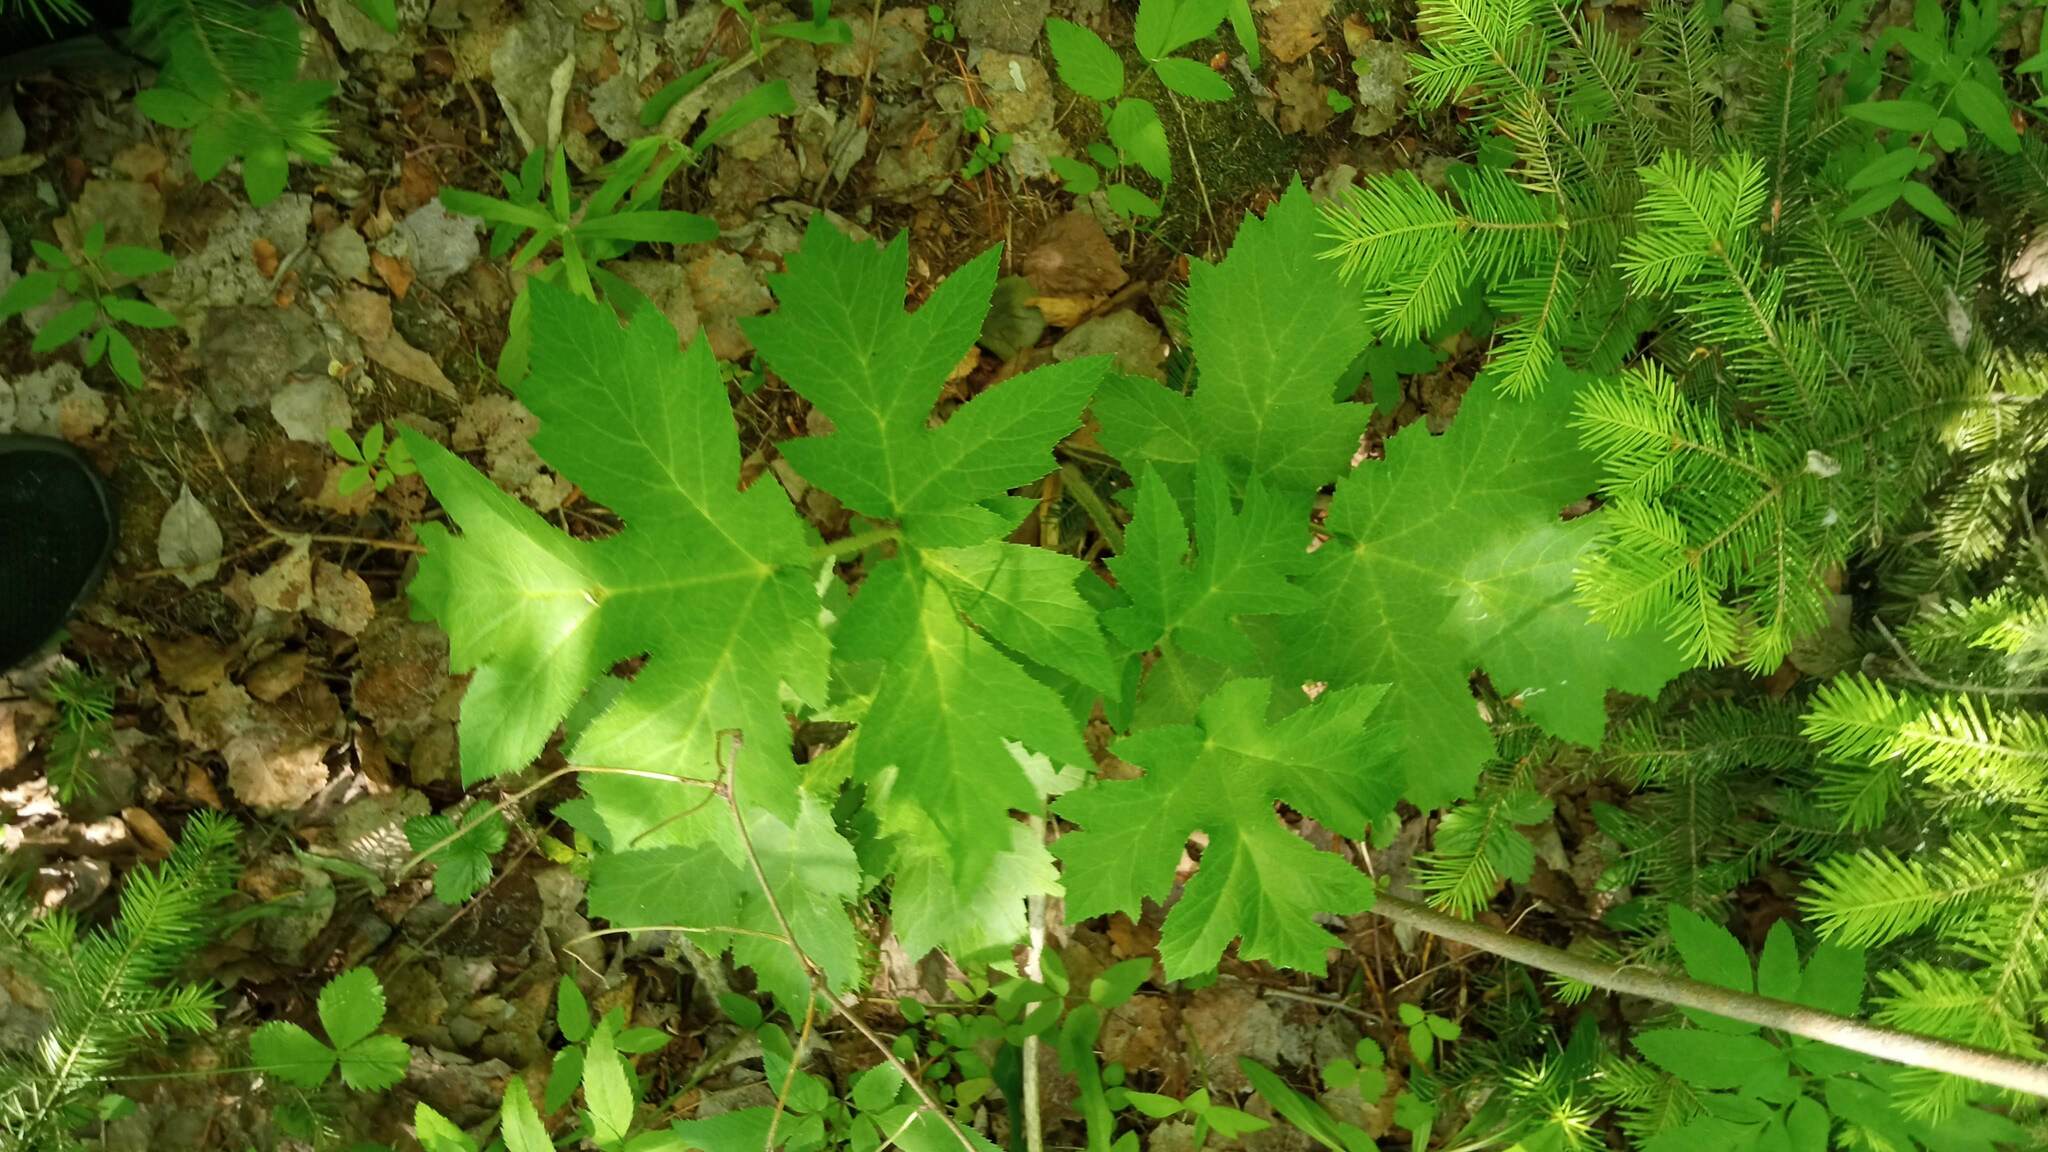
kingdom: Plantae
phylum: Tracheophyta
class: Magnoliopsida
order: Apiales
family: Apiaceae
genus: Heracleum
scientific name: Heracleum sphondylium
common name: Hogweed
